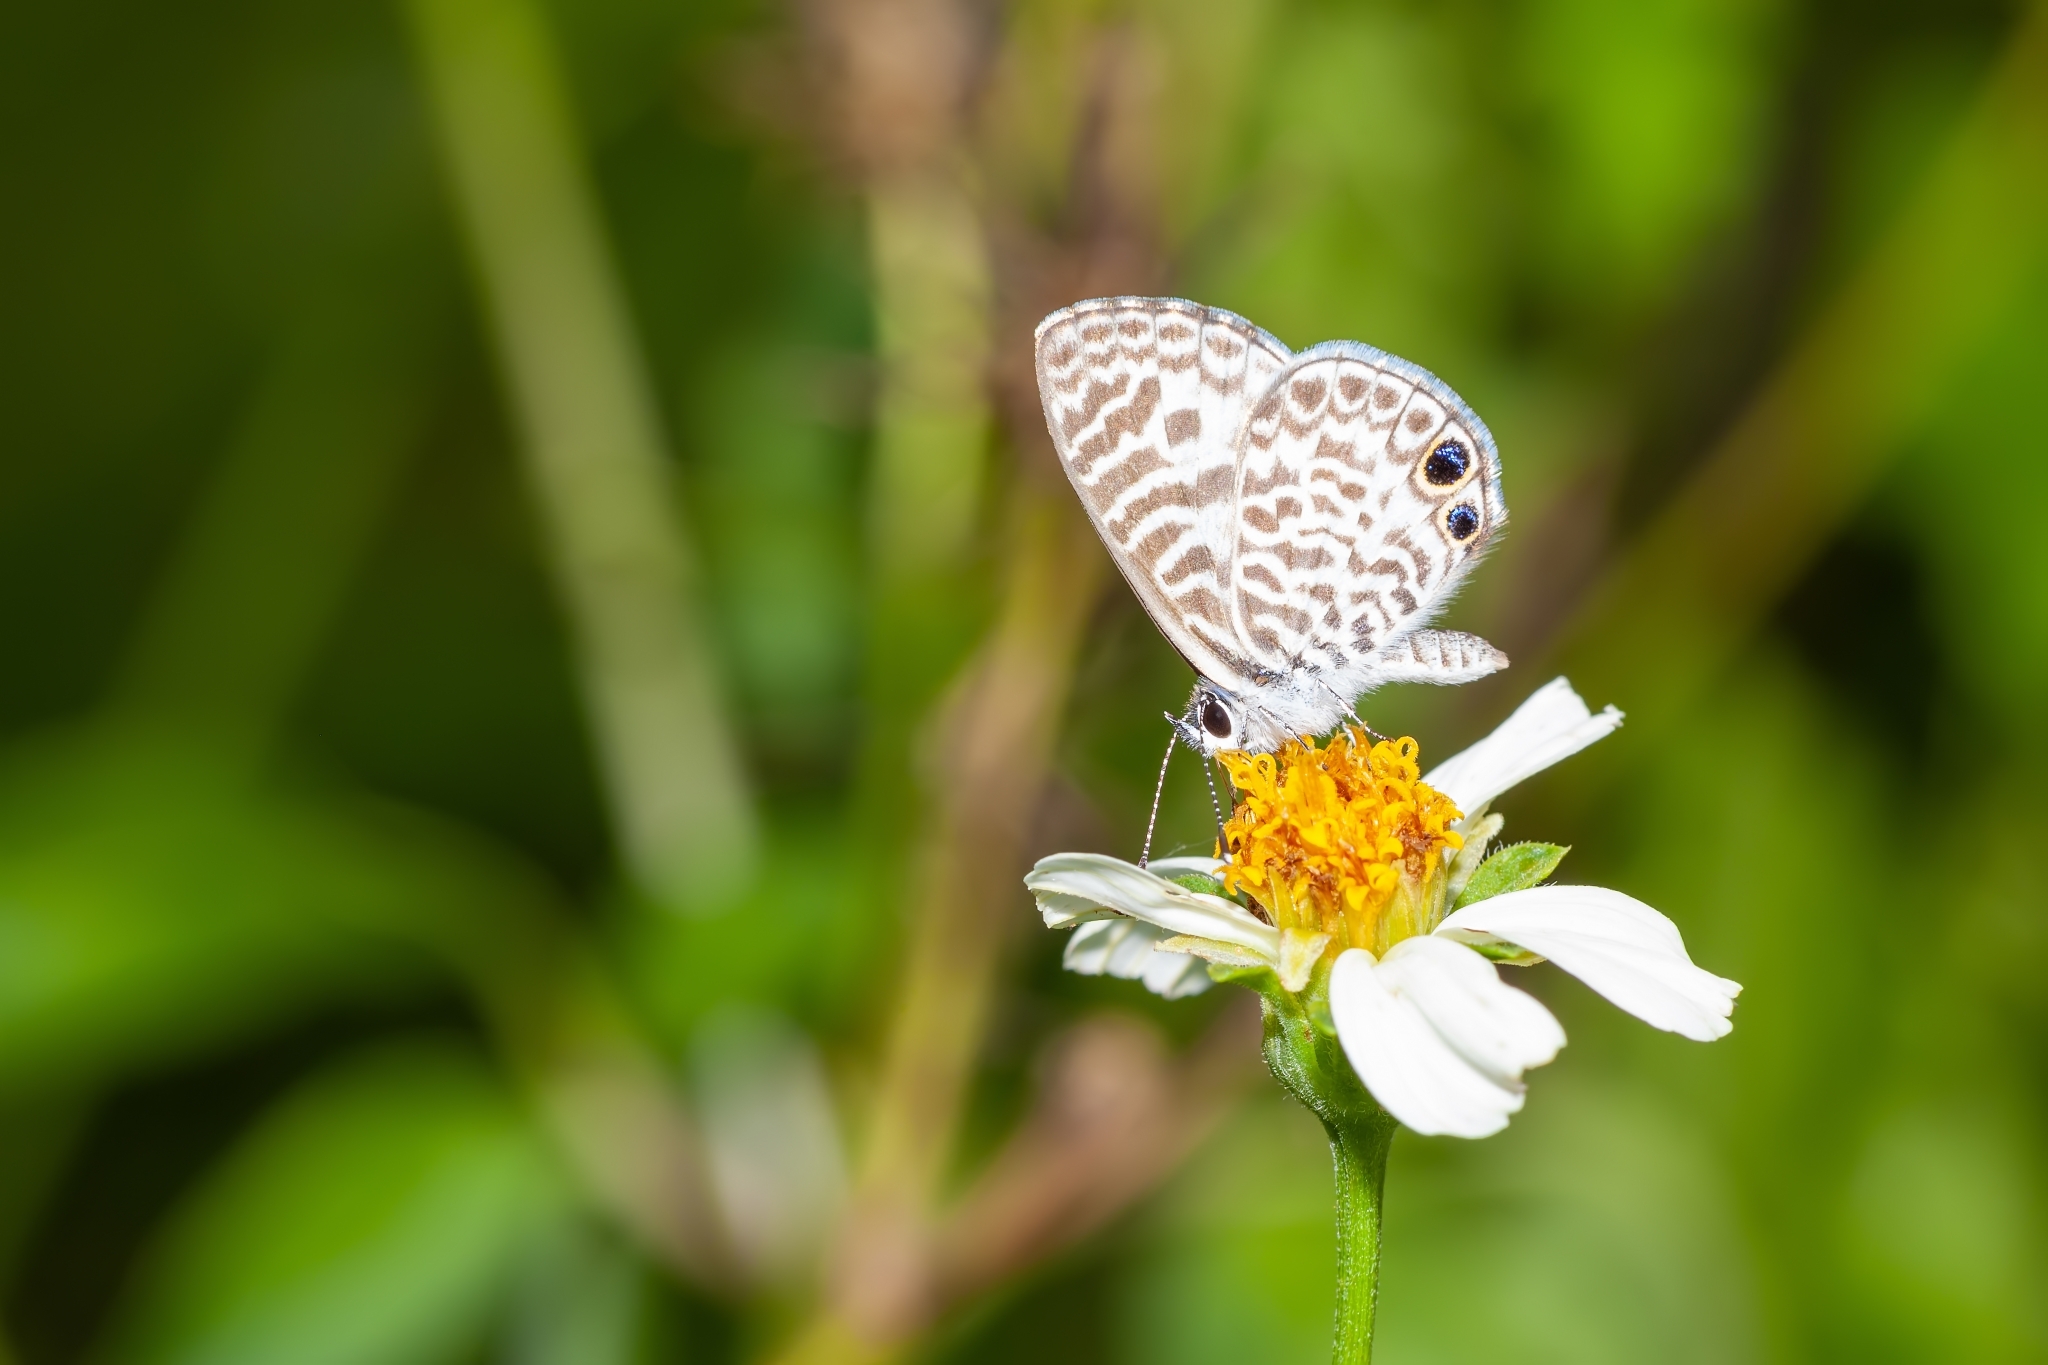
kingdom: Animalia
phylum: Arthropoda
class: Insecta
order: Lepidoptera
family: Lycaenidae
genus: Leptotes
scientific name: Leptotes cassius
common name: Cassius blue
